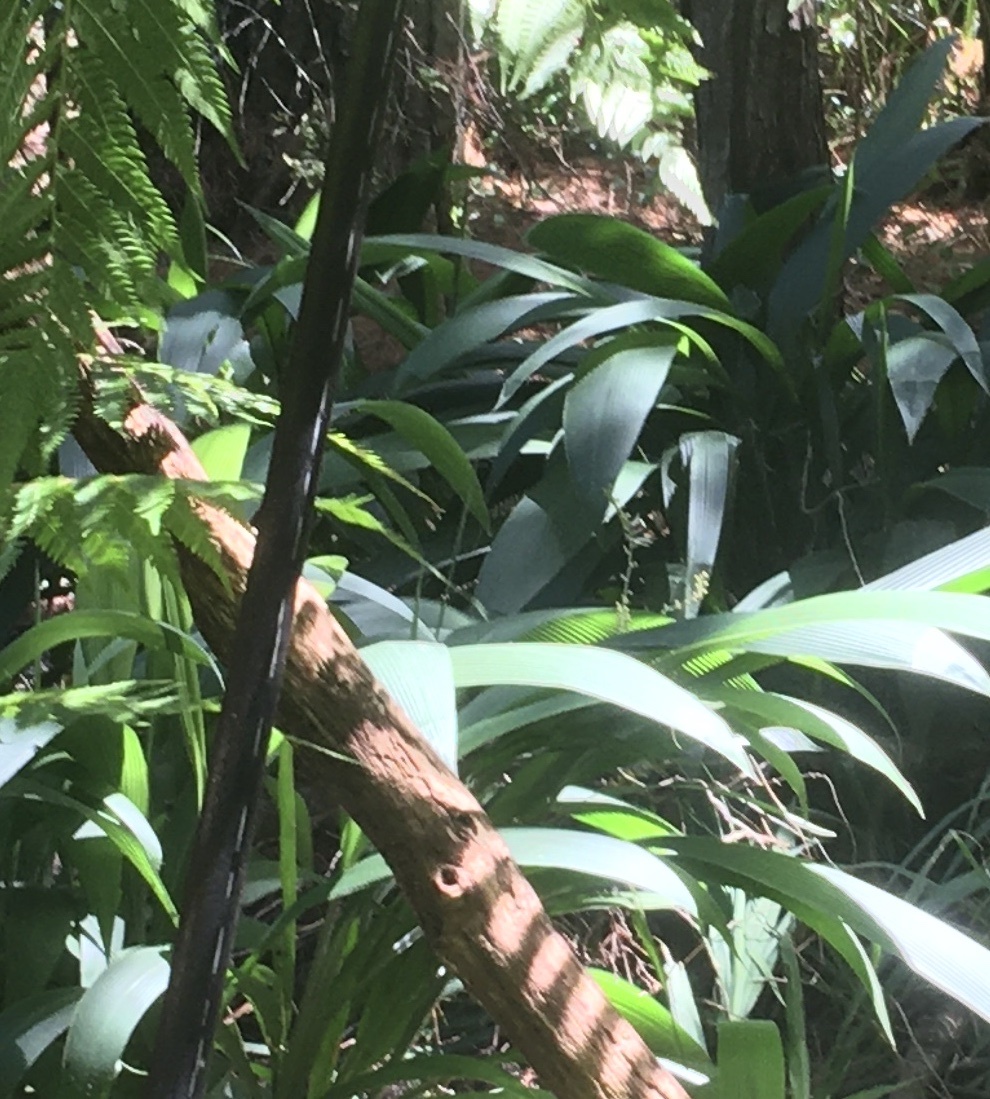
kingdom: Plantae
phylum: Tracheophyta
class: Liliopsida
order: Poales
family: Poaceae
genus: Setaria
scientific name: Setaria palmifolia
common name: Broadleaved bristlegrass
